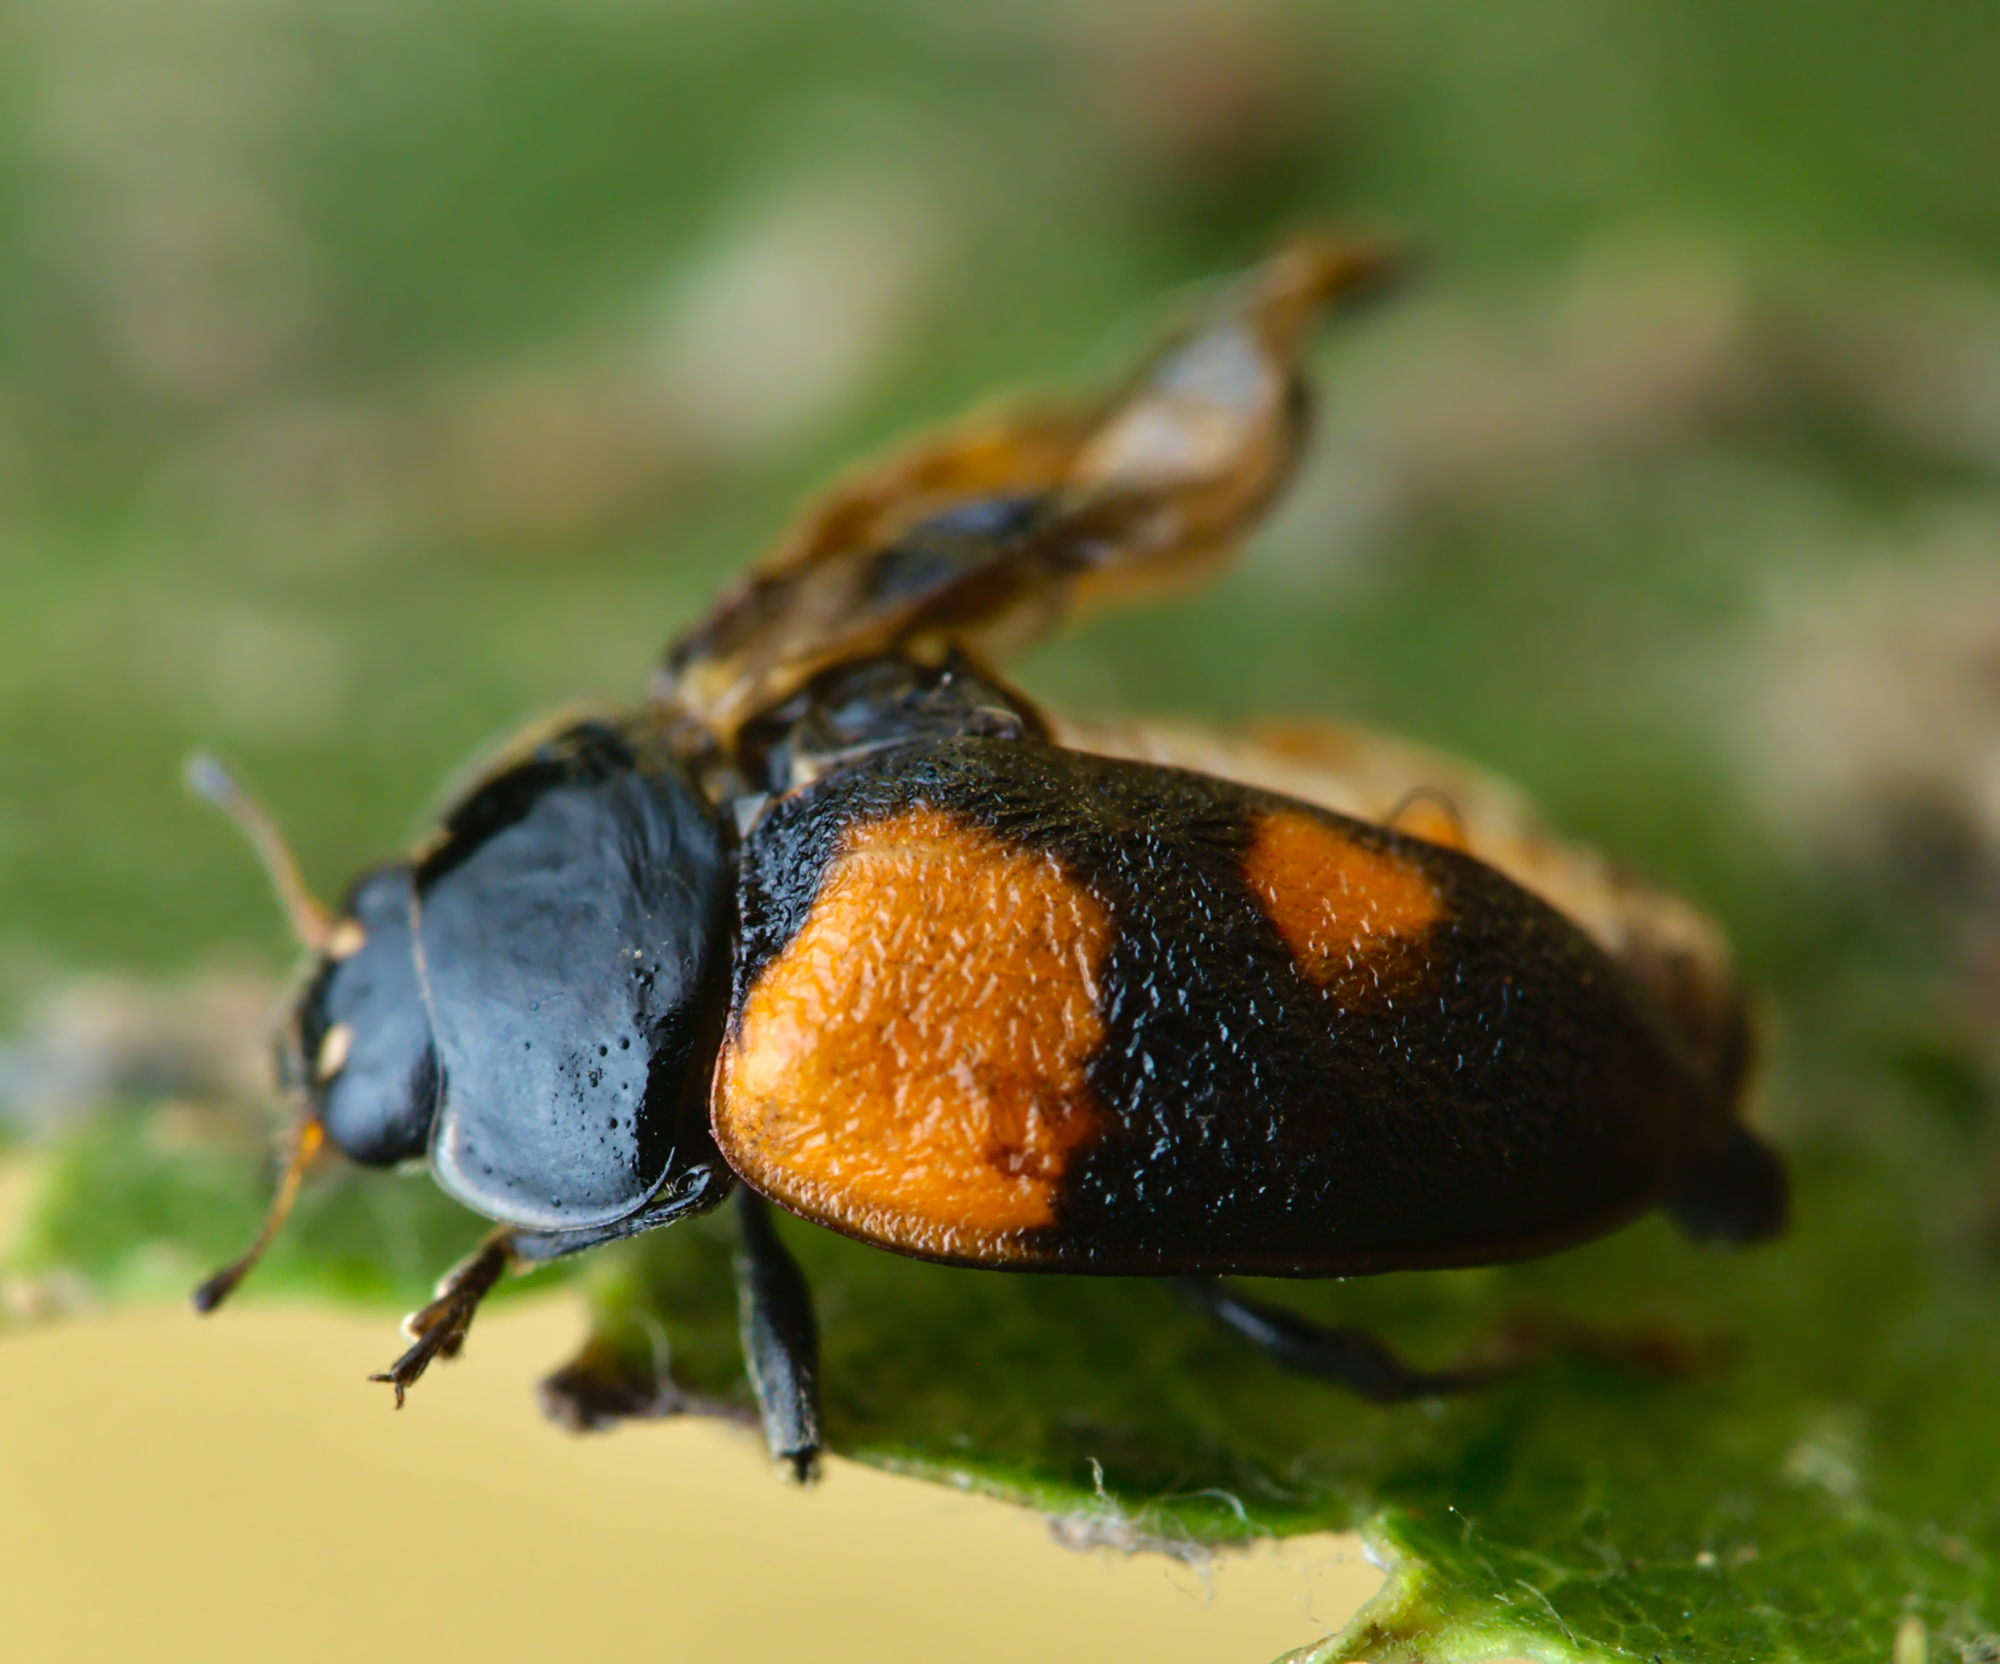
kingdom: Animalia
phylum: Arthropoda
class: Insecta
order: Coleoptera
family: Coccinellidae
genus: Adalia
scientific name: Adalia bipunctata
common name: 2-spot ladybird
